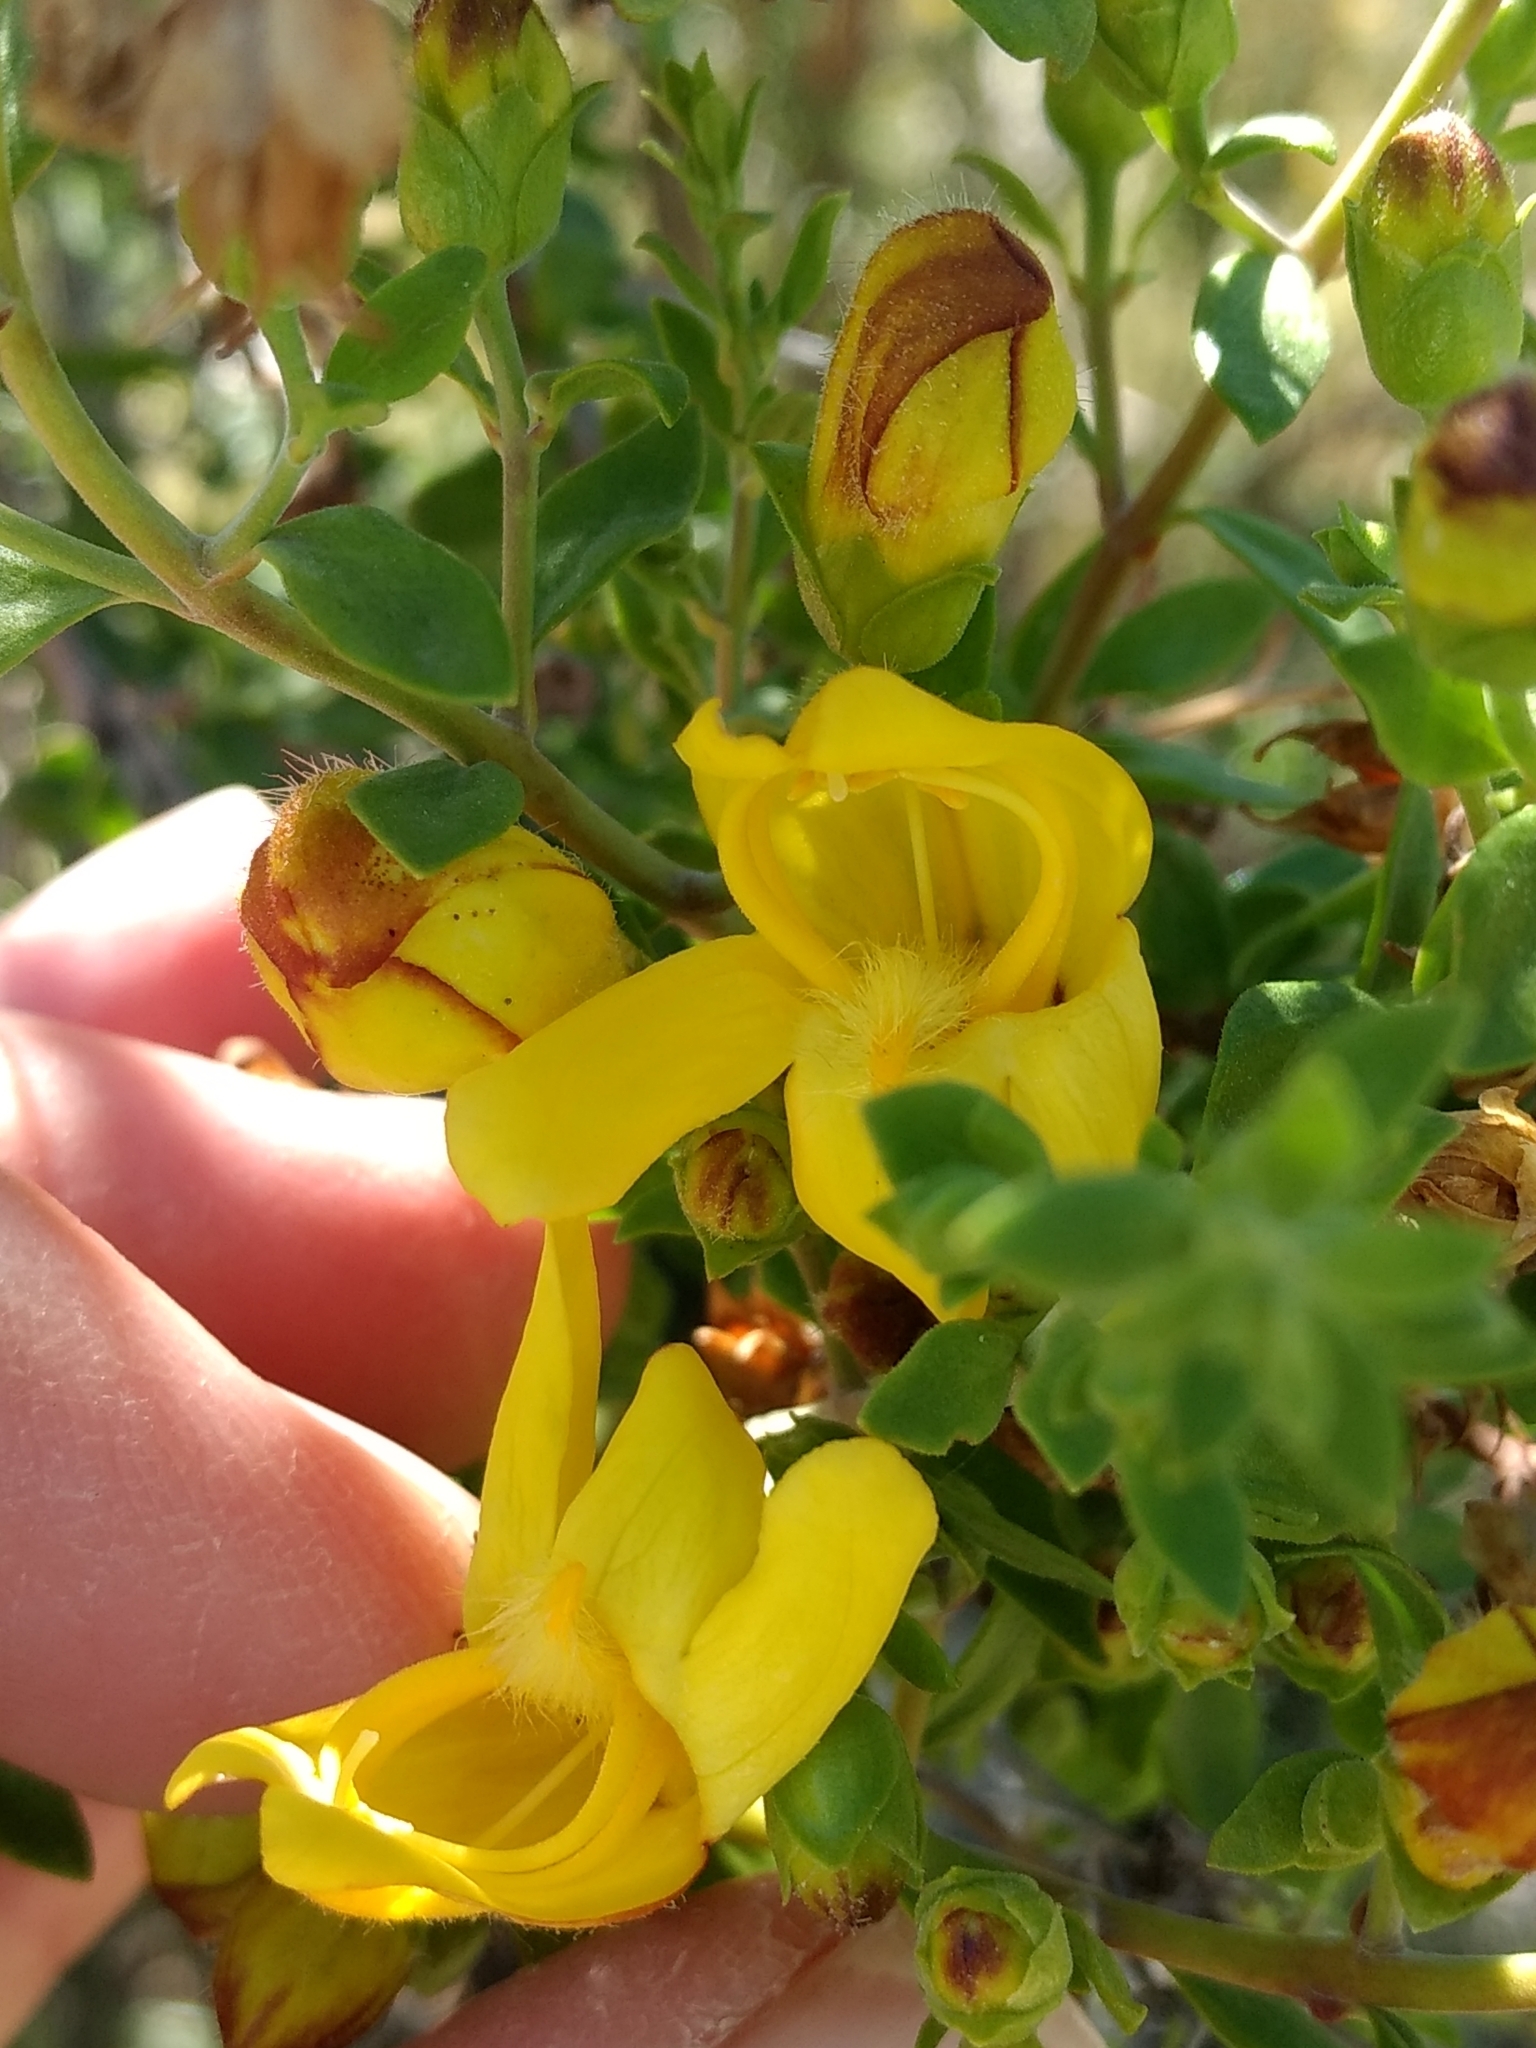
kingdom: Plantae
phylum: Tracheophyta
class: Magnoliopsida
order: Lamiales
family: Plantaginaceae
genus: Keckiella
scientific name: Keckiella antirrhinoides
